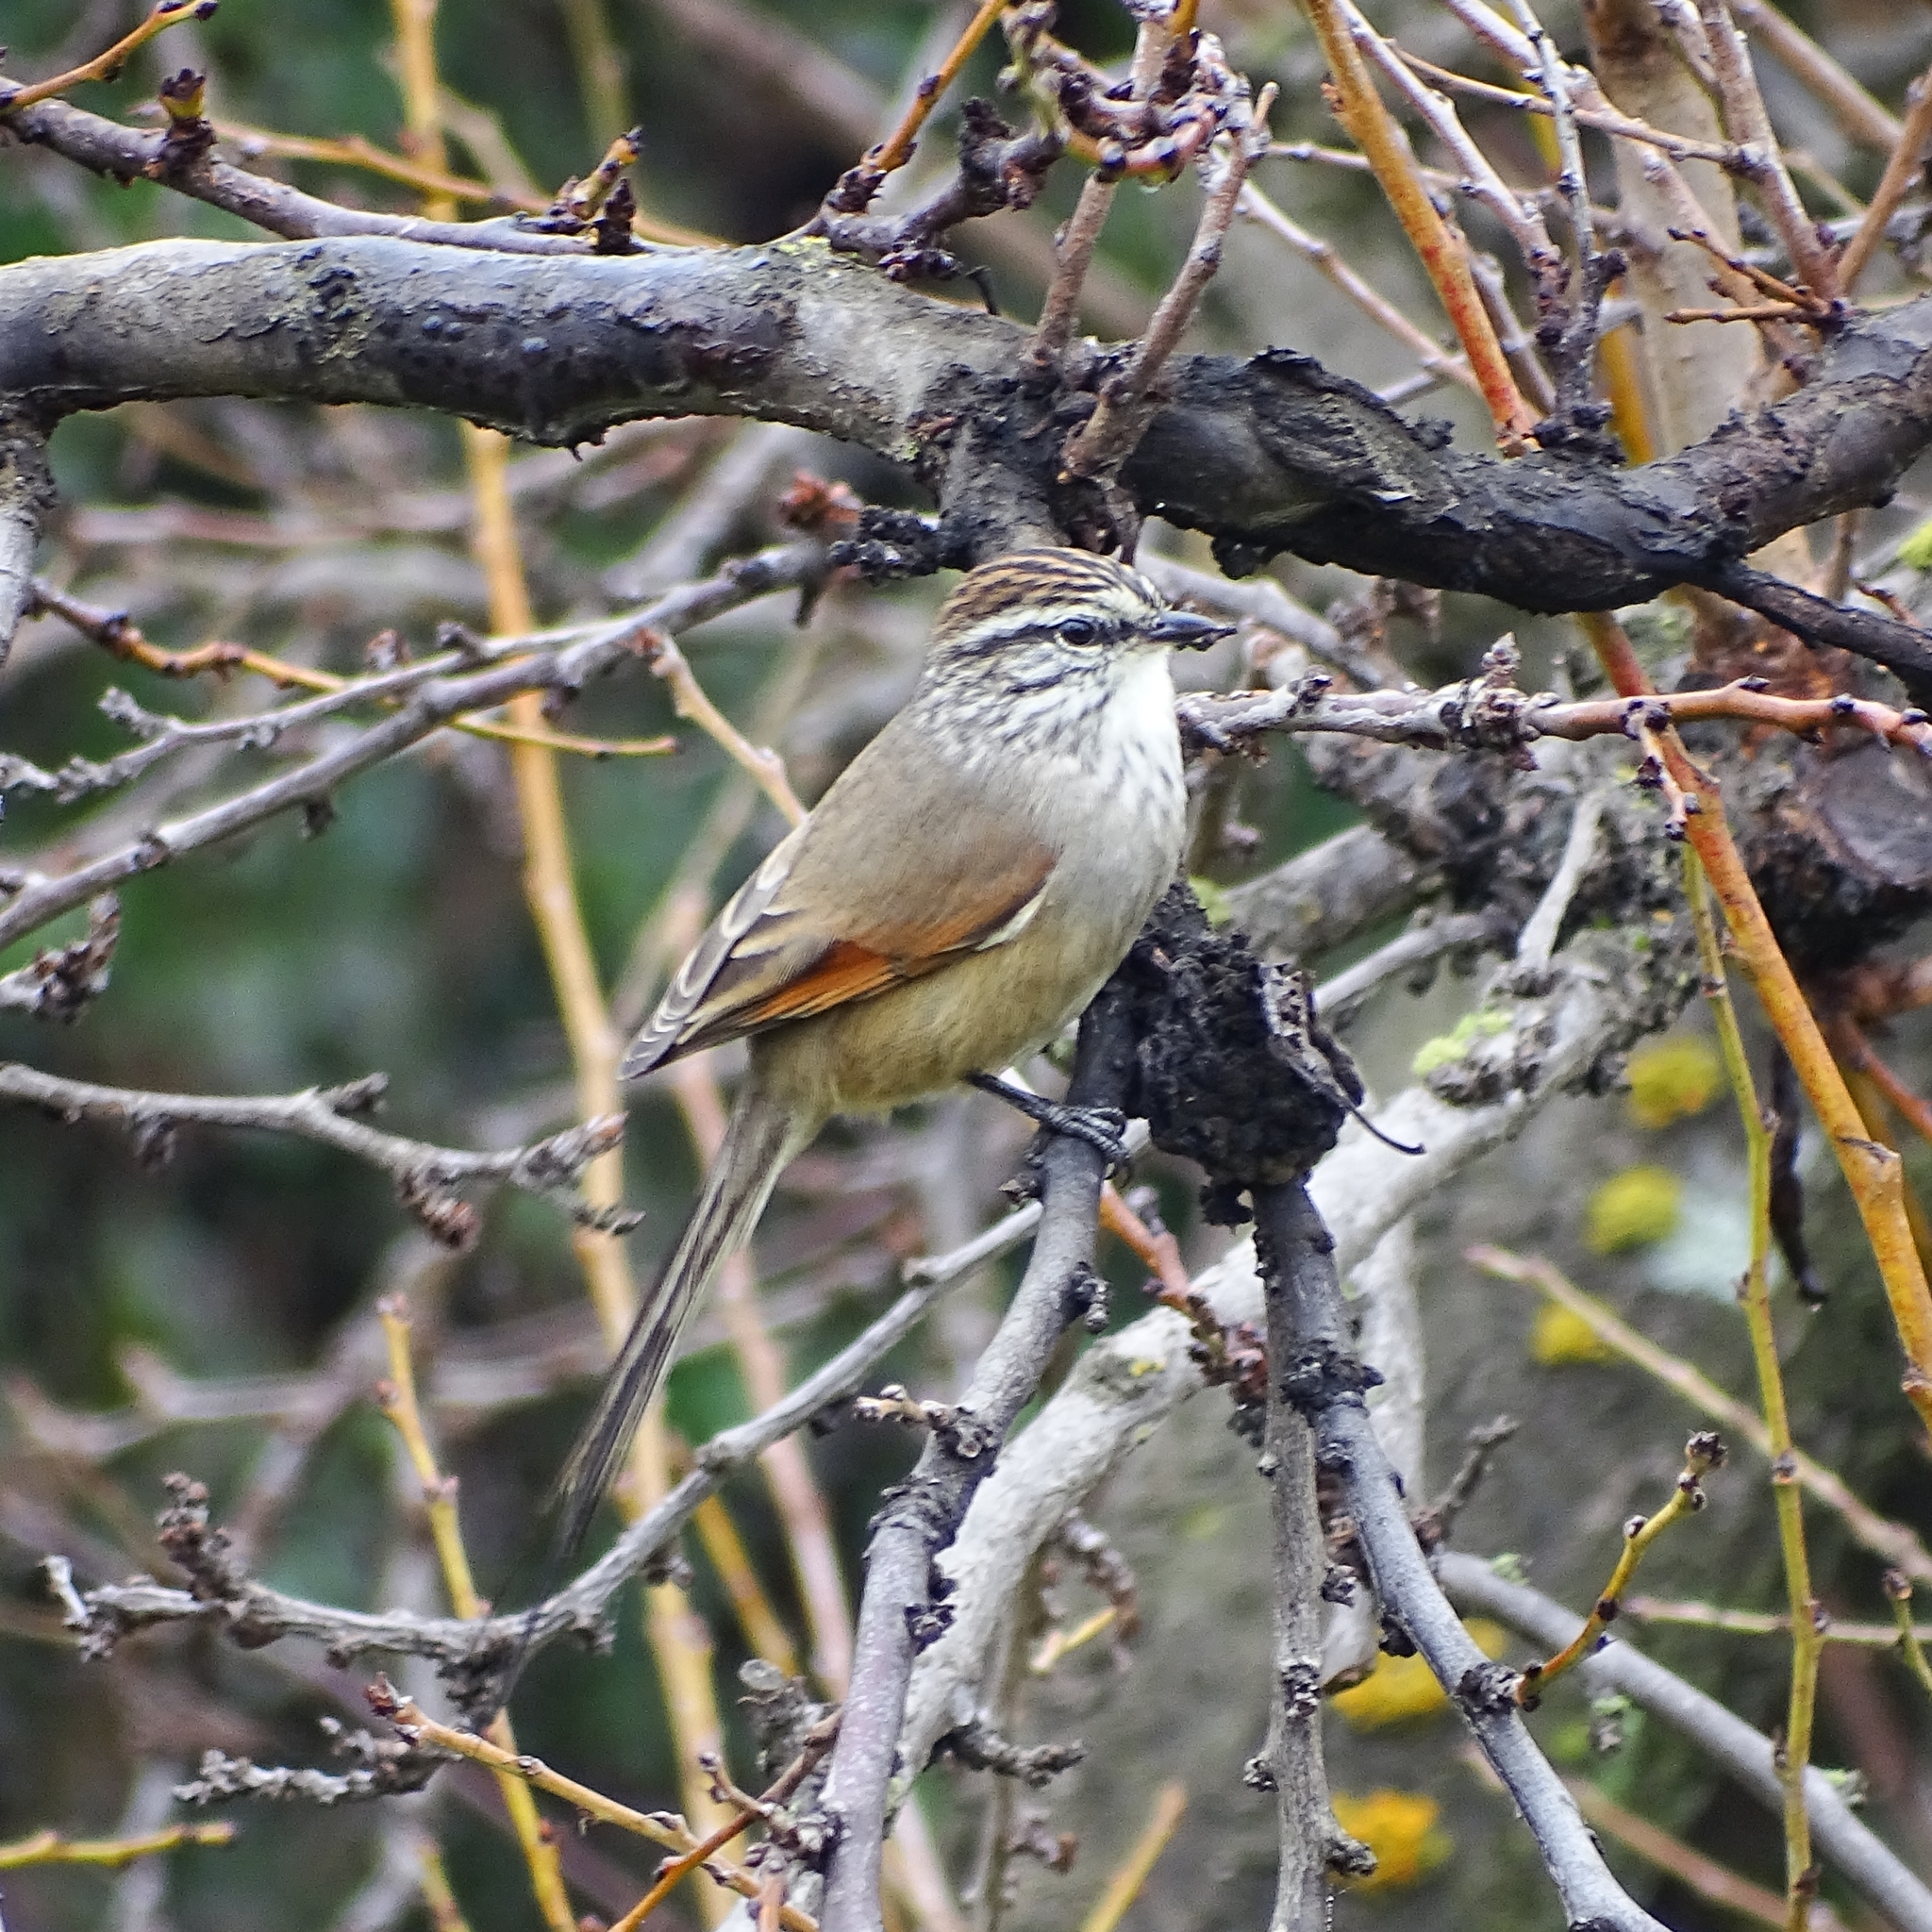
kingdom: Animalia
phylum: Chordata
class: Aves
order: Passeriformes
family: Furnariidae
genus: Leptasthenura
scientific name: Leptasthenura aegithaloides
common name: Plain-mantled tit-spinetail
